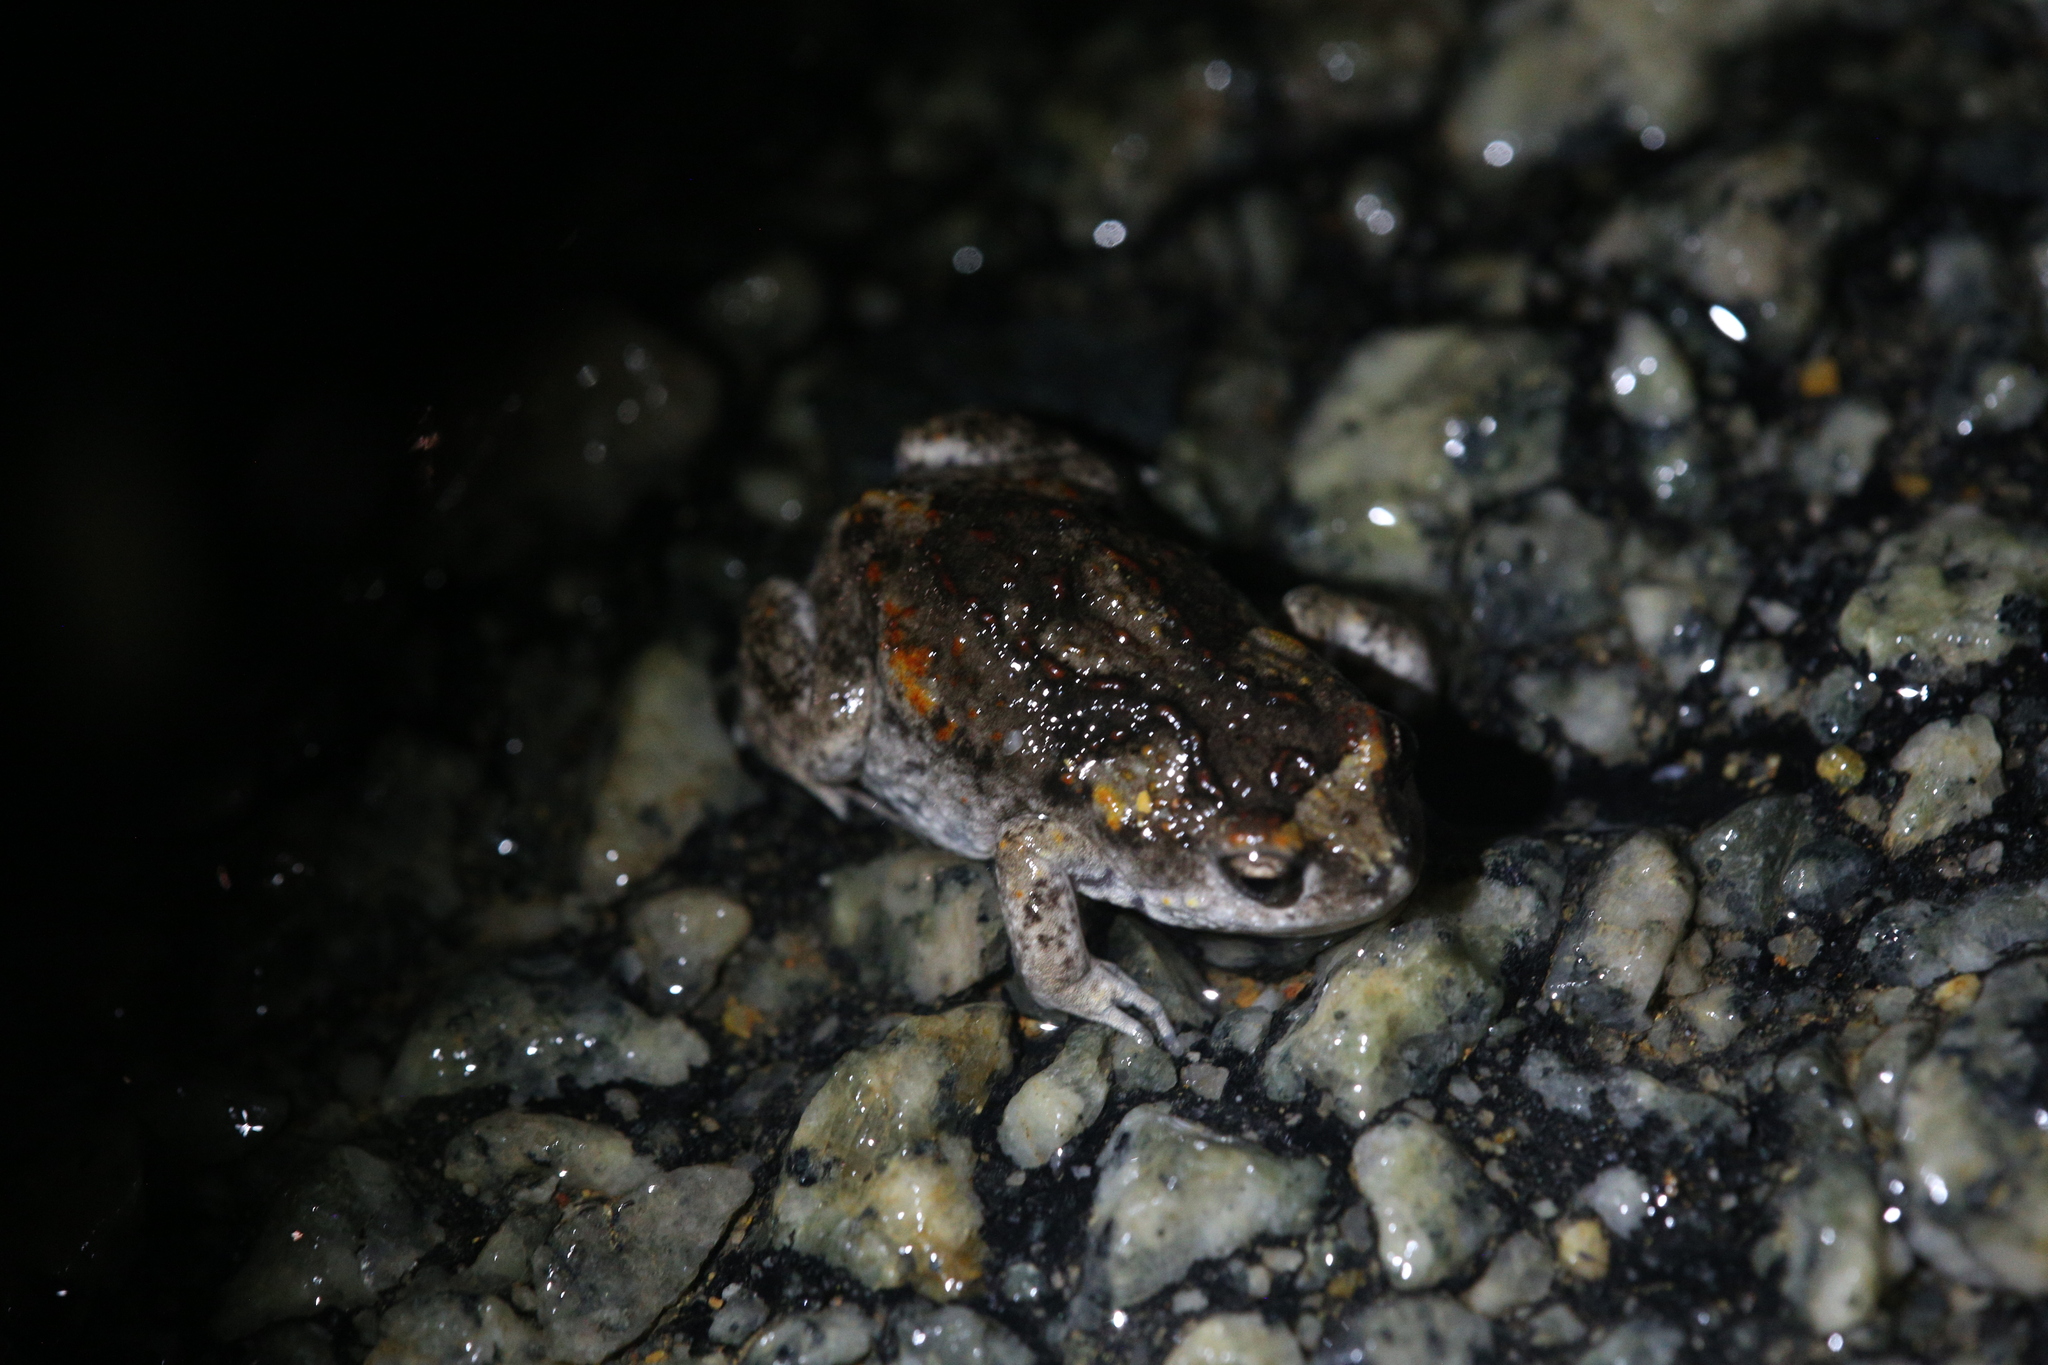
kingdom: Animalia
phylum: Chordata
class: Amphibia
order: Anura
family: Myobatrachidae
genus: Pseudophryne
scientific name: Pseudophryne guentheri
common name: Günther’s toadlet
